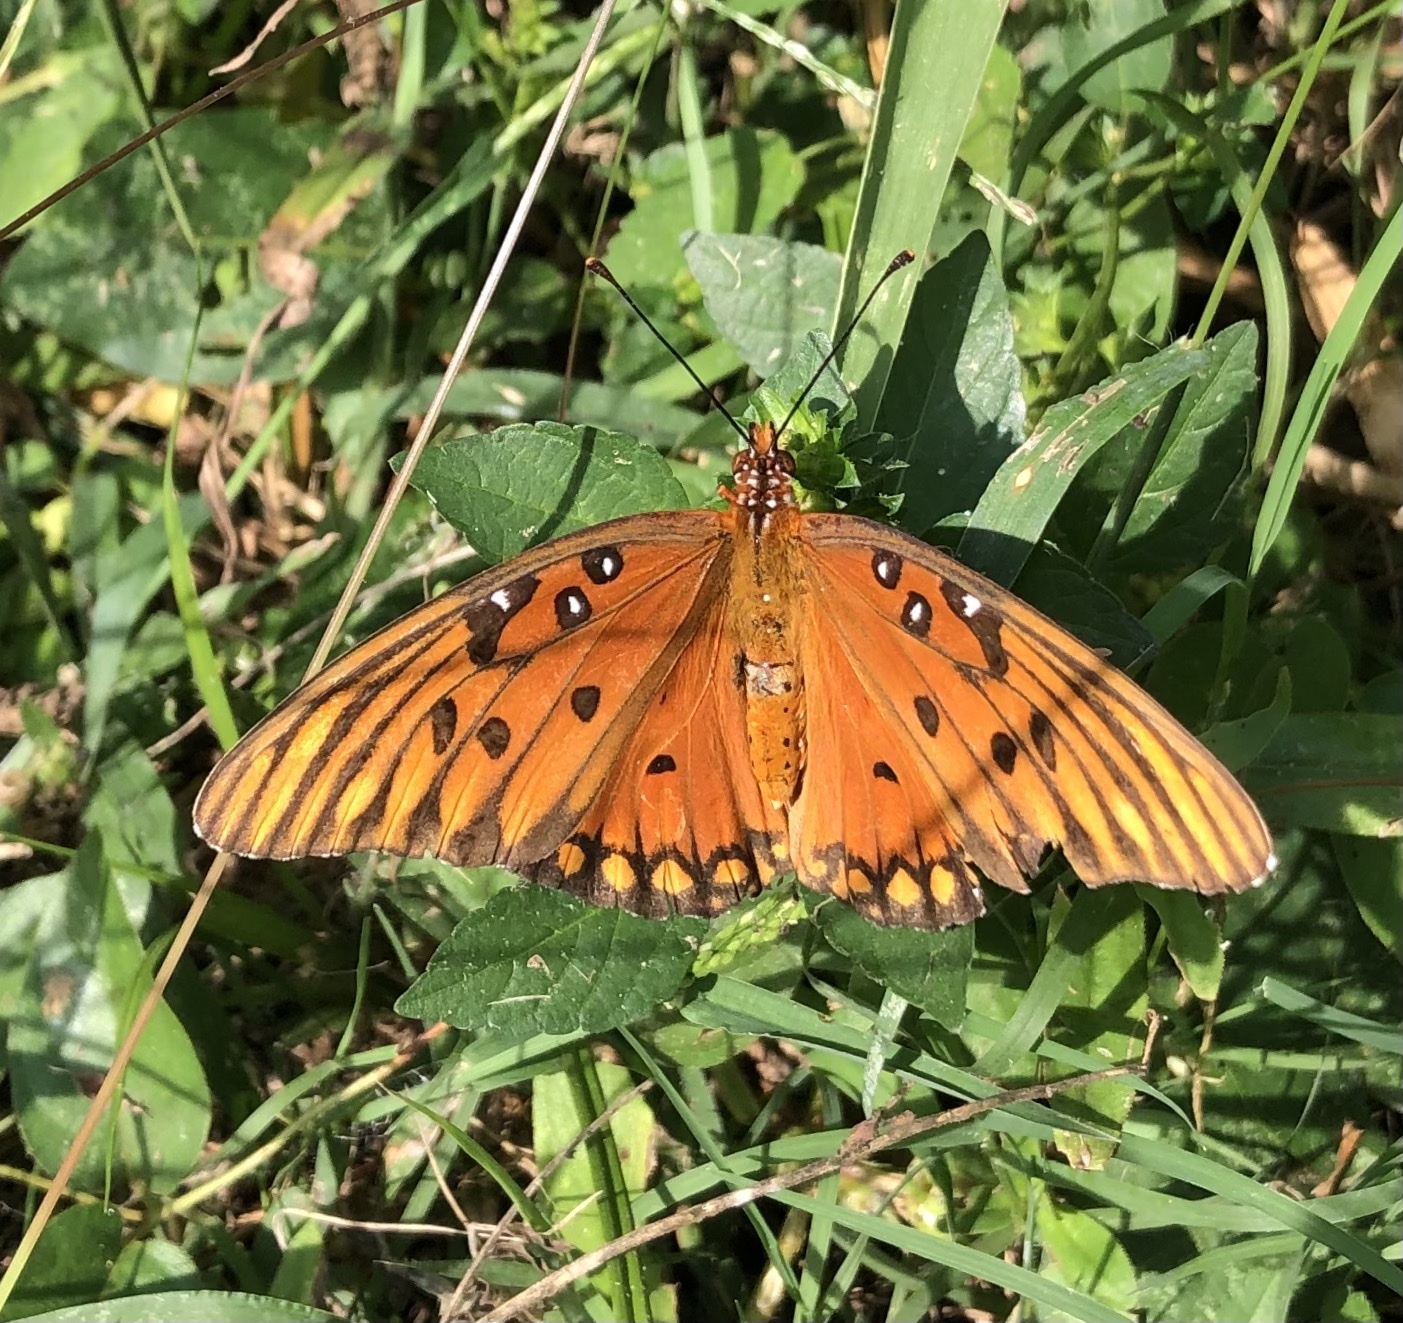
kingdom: Animalia
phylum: Arthropoda
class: Insecta
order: Lepidoptera
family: Nymphalidae
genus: Dione
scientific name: Dione vanillae
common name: Gulf fritillary
